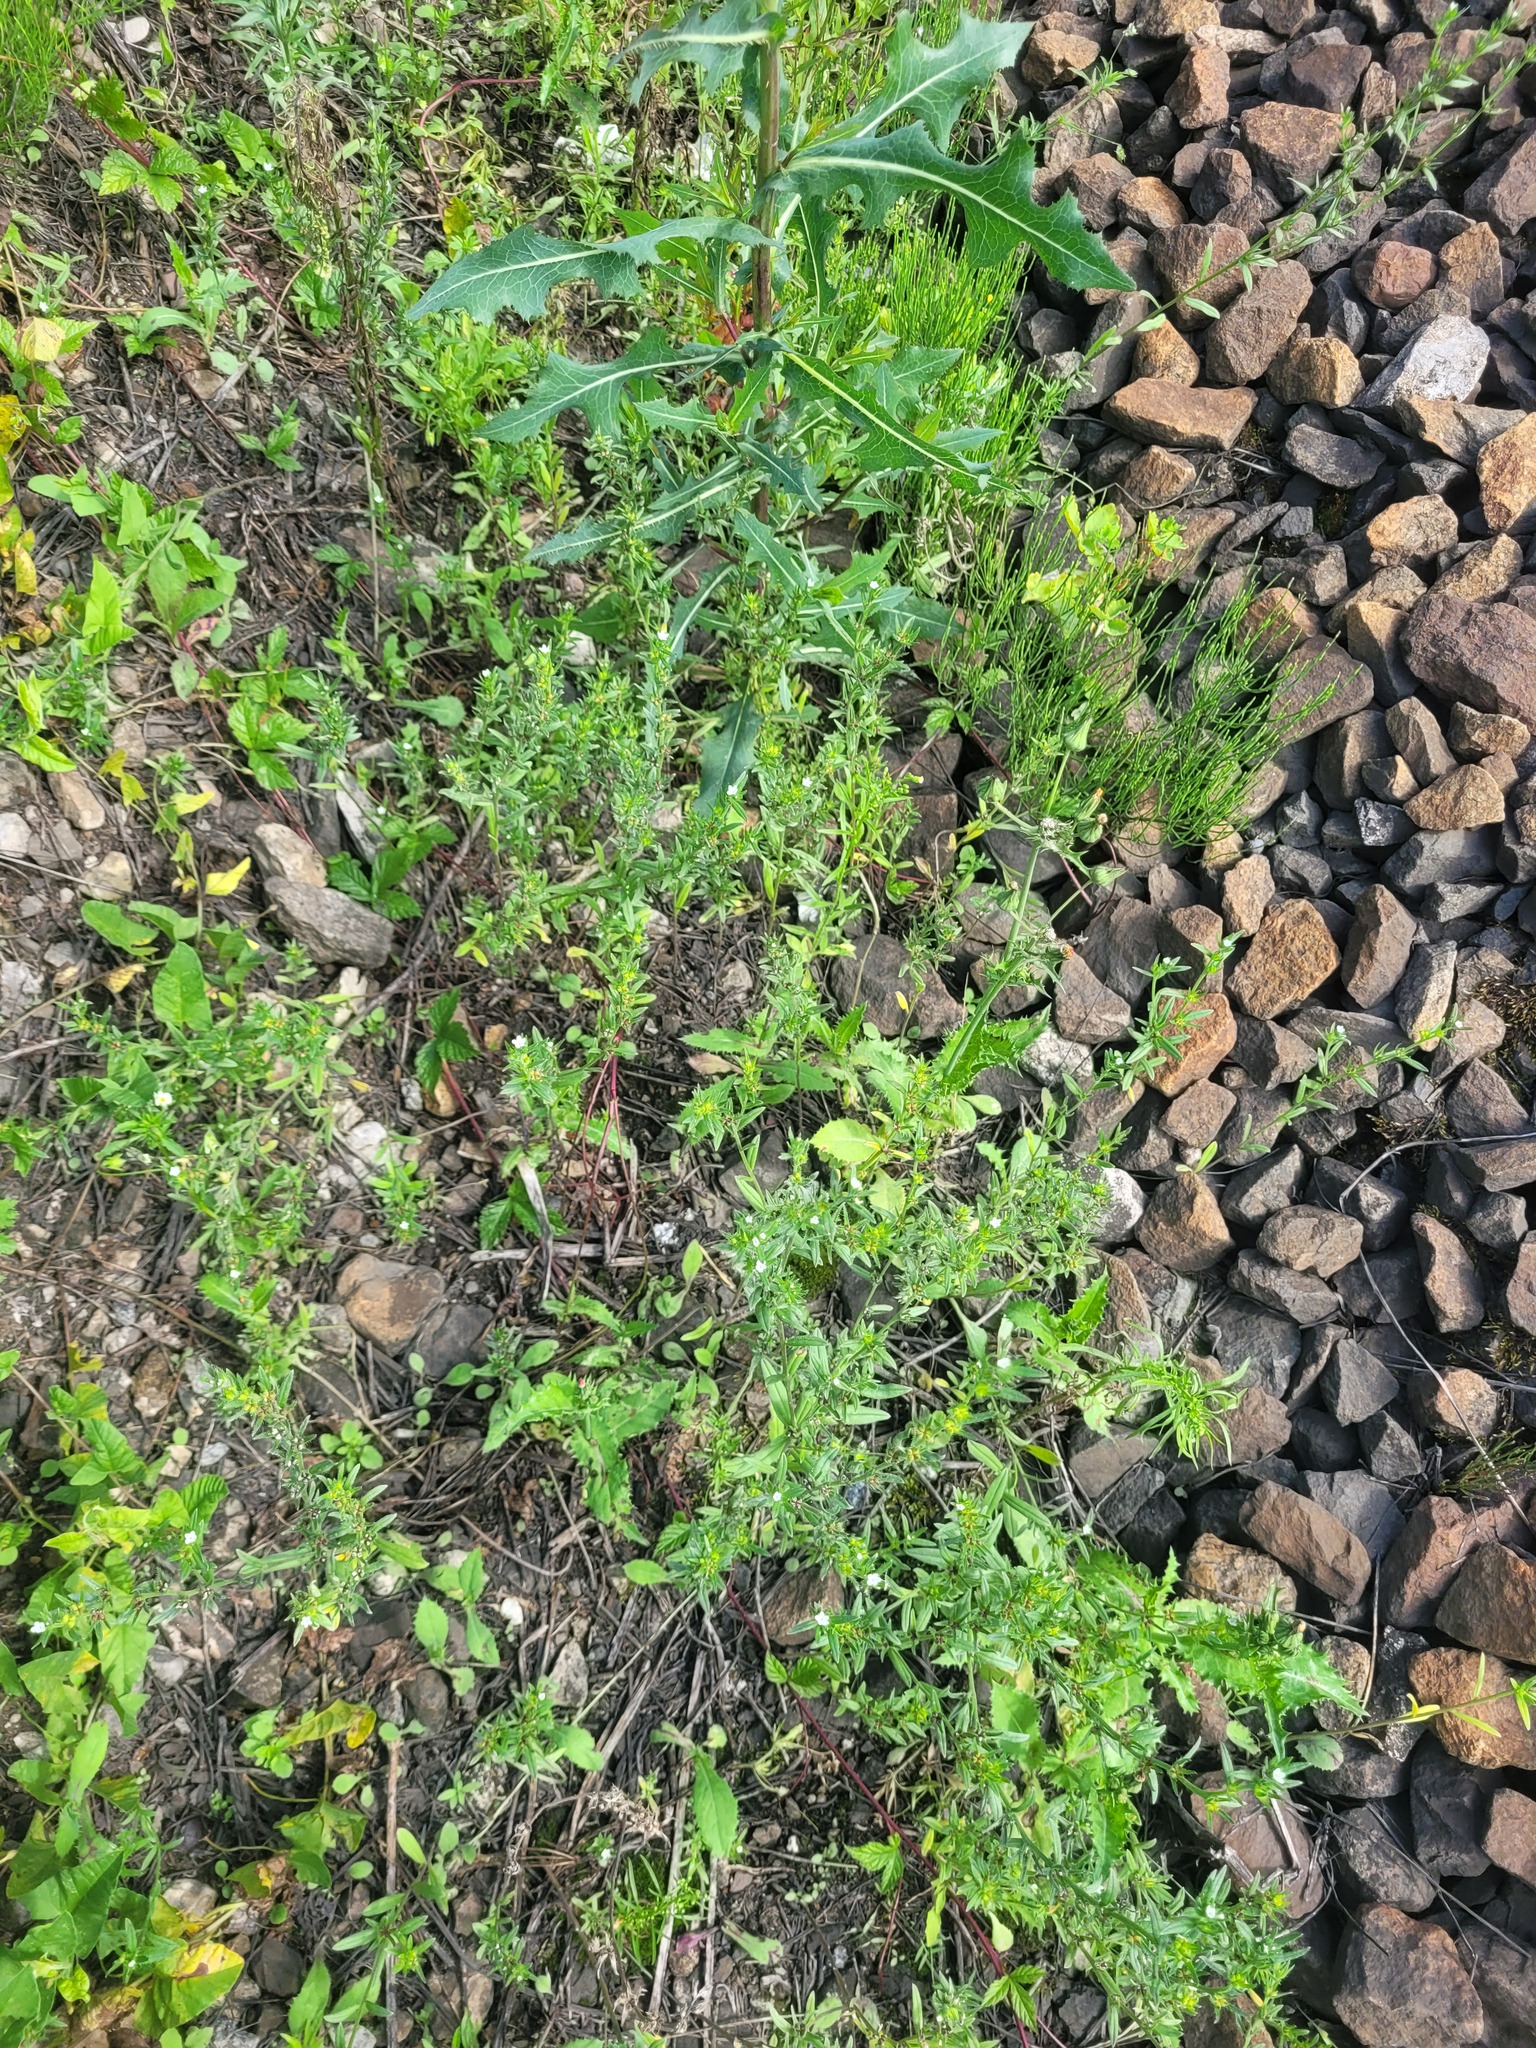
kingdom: Plantae
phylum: Tracheophyta
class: Magnoliopsida
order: Boraginales
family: Boraginaceae
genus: Buglossoides
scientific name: Buglossoides arvensis
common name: Corn gromwell
